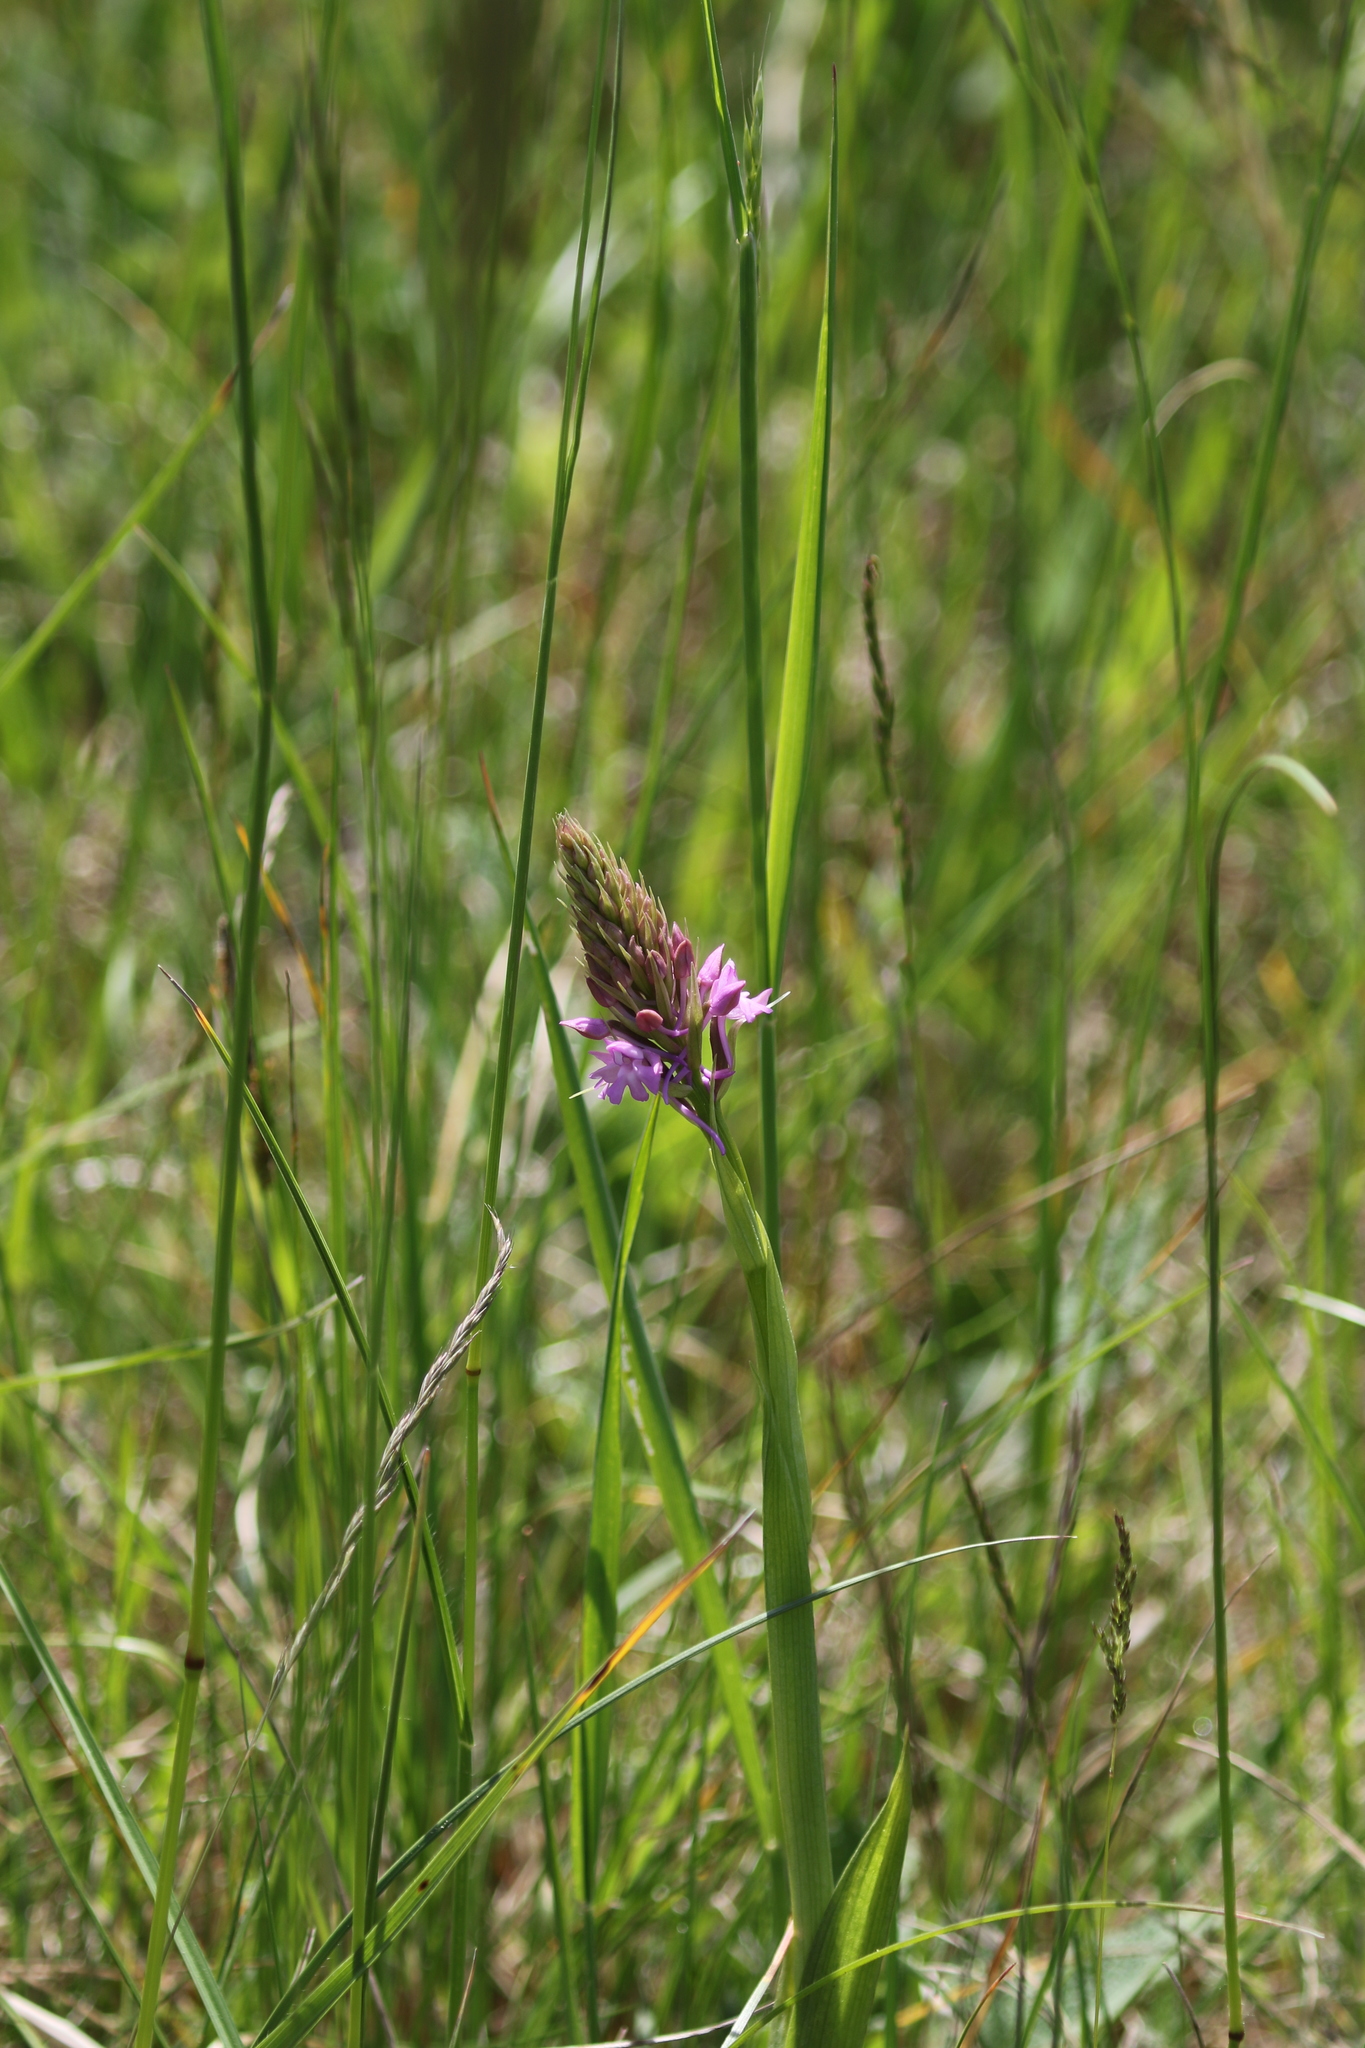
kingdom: Plantae
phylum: Tracheophyta
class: Liliopsida
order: Asparagales
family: Orchidaceae
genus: Anacamptis
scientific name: Anacamptis pyramidalis
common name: Pyramidal orchid
